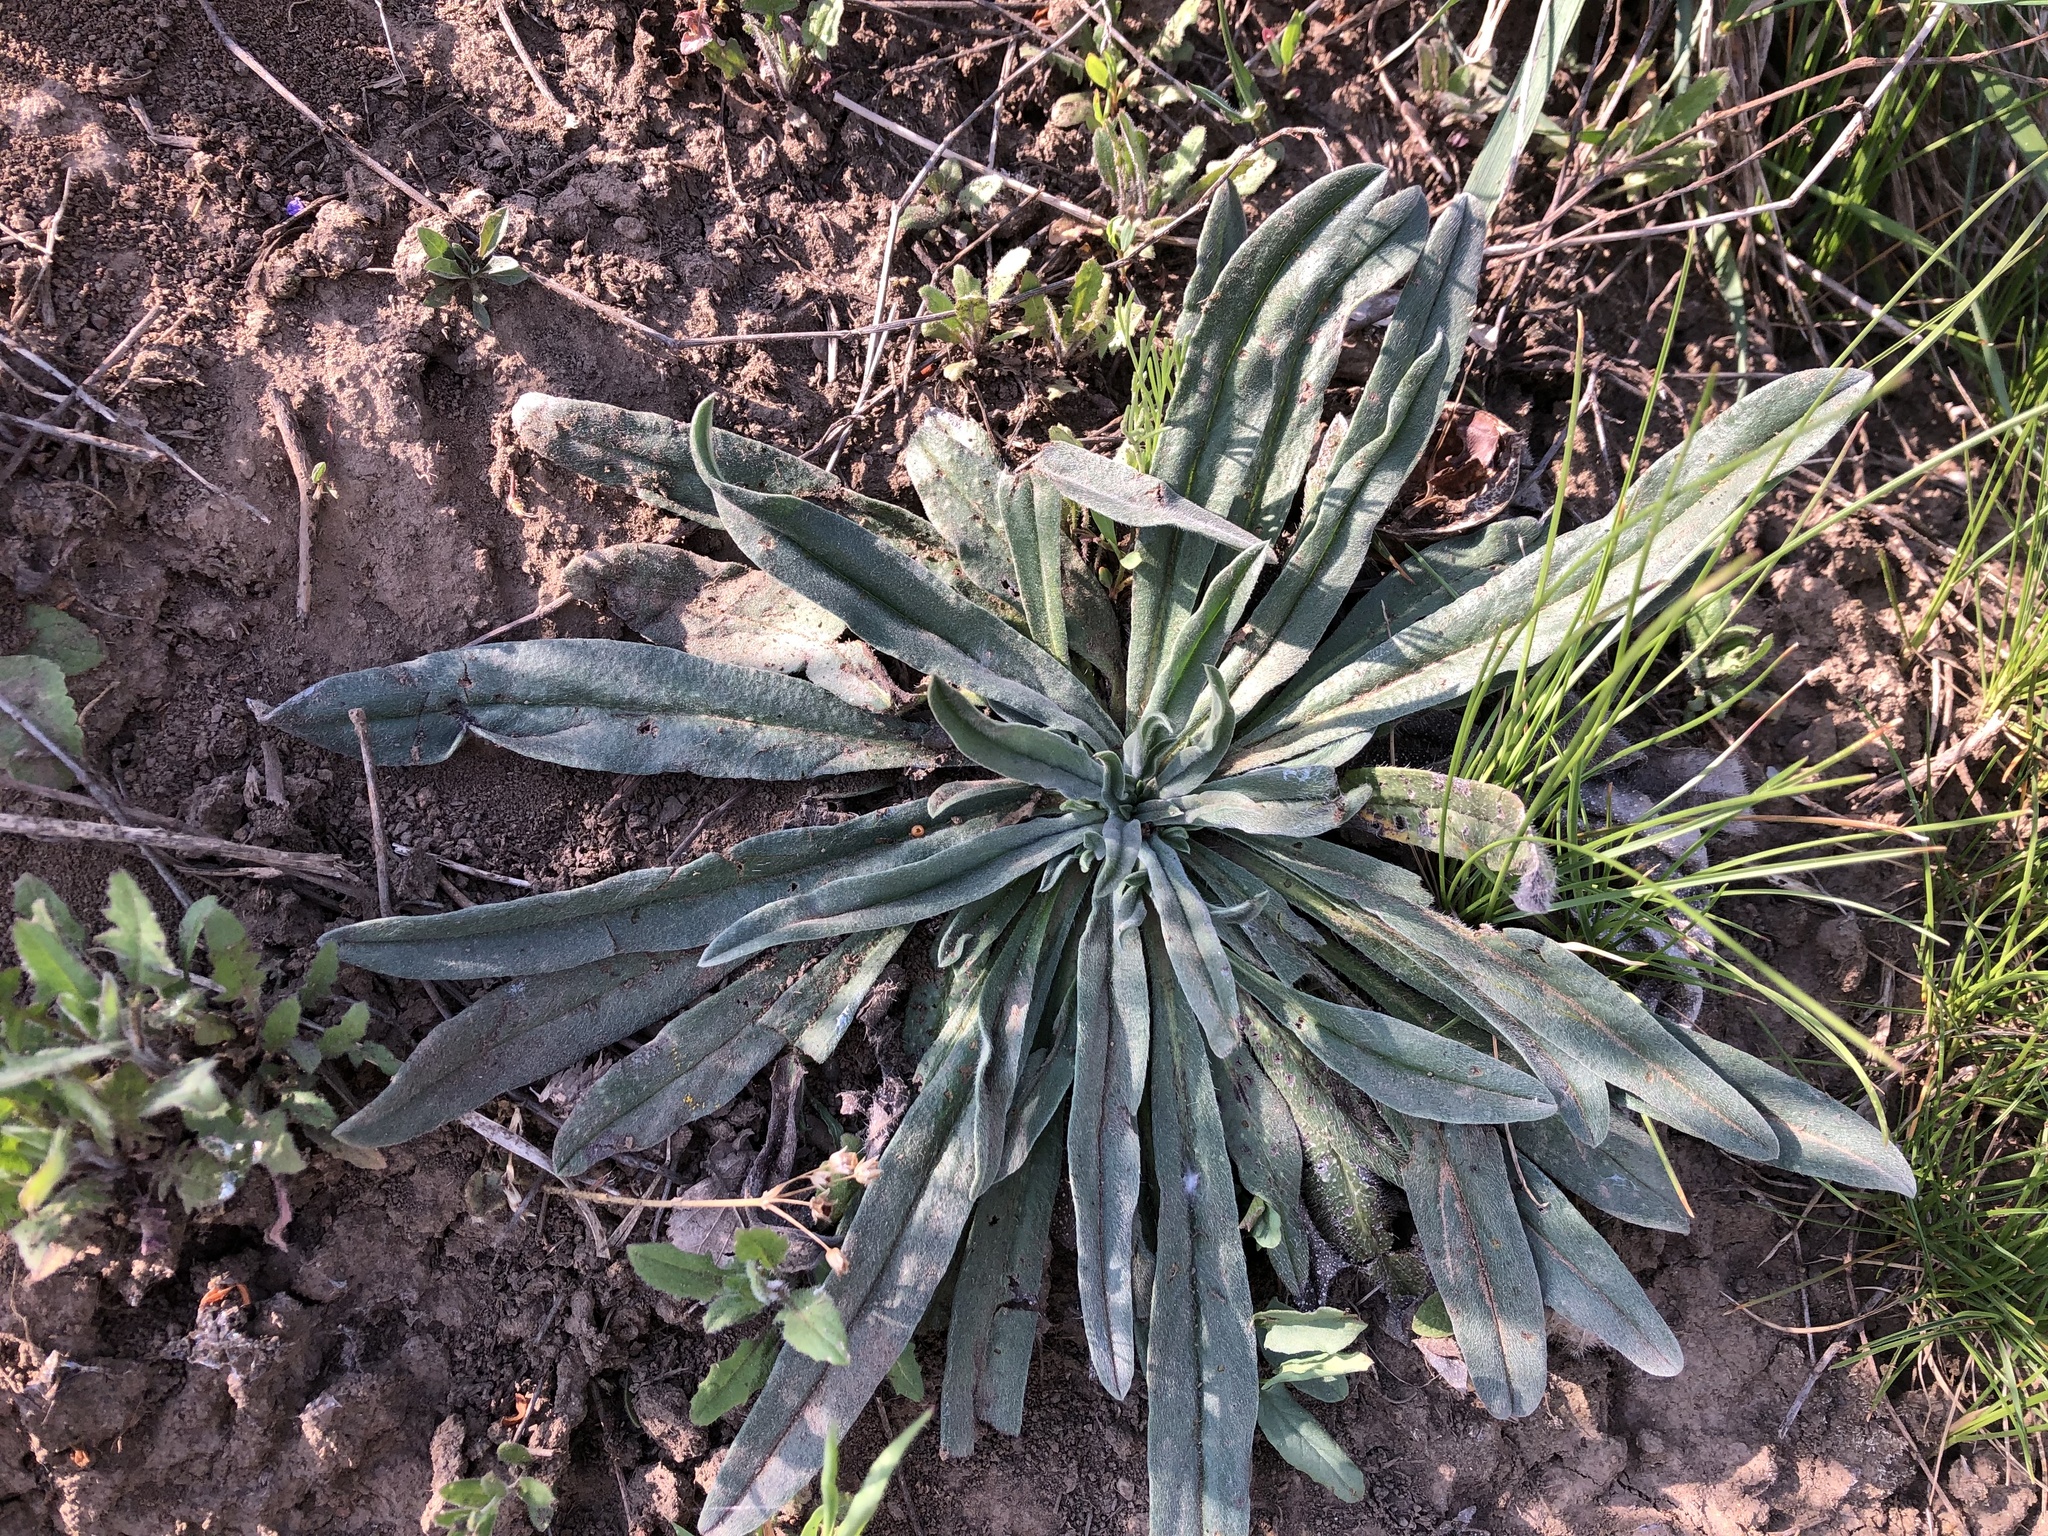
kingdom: Plantae
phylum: Tracheophyta
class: Magnoliopsida
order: Boraginales
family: Boraginaceae
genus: Echium
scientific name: Echium vulgare
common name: Common viper's bugloss
